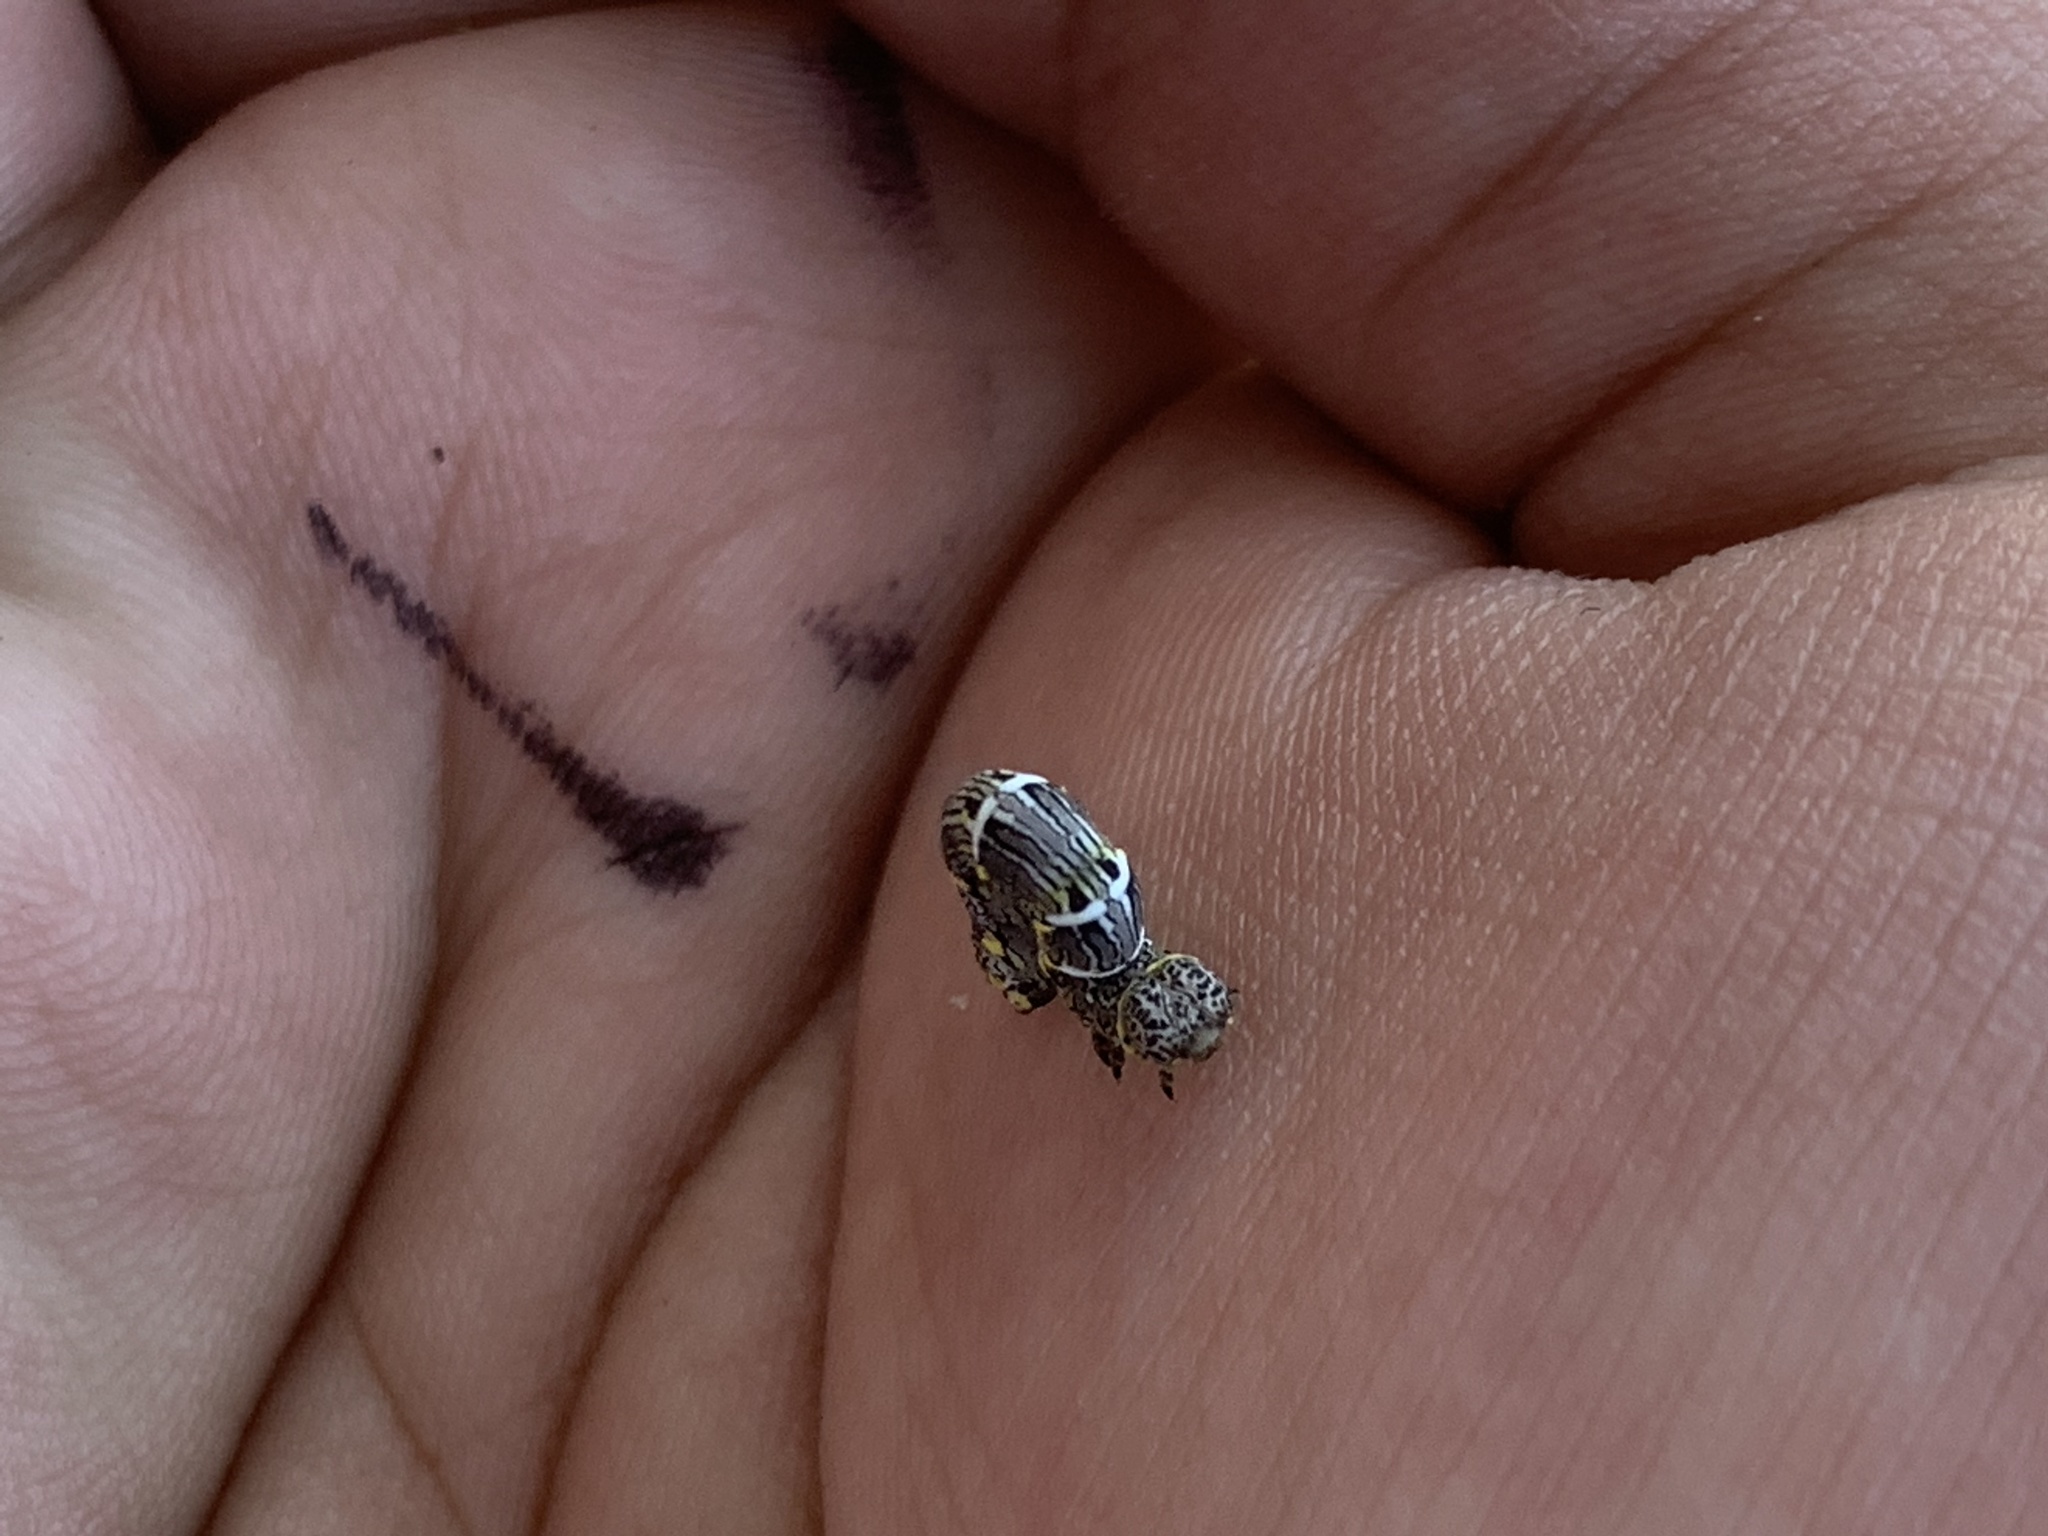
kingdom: Animalia
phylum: Arthropoda
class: Insecta
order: Lepidoptera
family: Geometridae
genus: Lycia
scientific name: Lycia ypsilon
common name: Wooly gray
